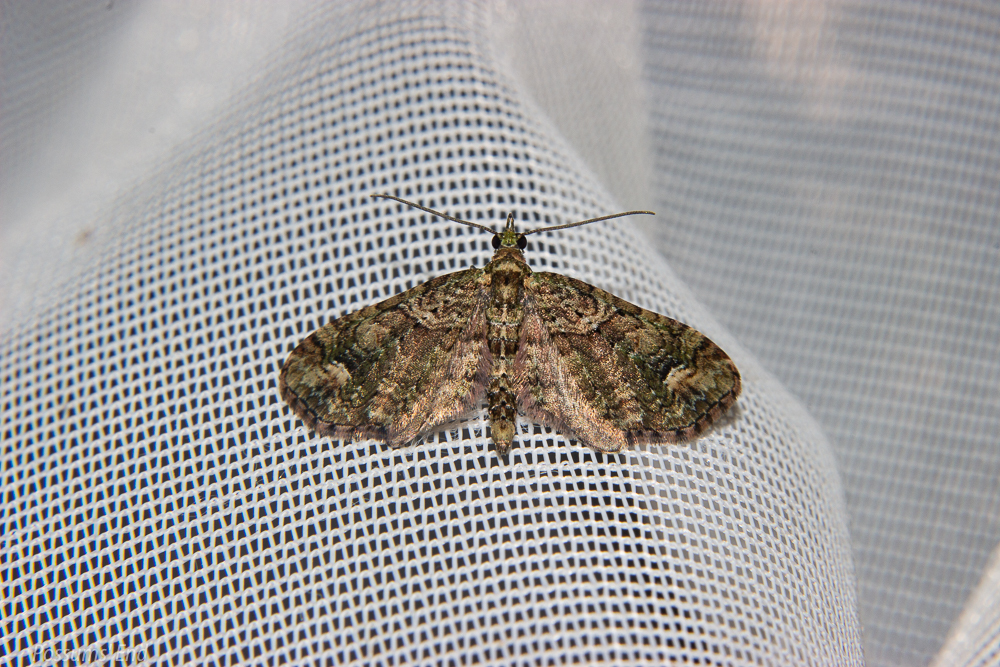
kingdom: Animalia
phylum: Arthropoda
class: Insecta
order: Lepidoptera
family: Geometridae
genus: Idaea
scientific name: Idaea mutanda
